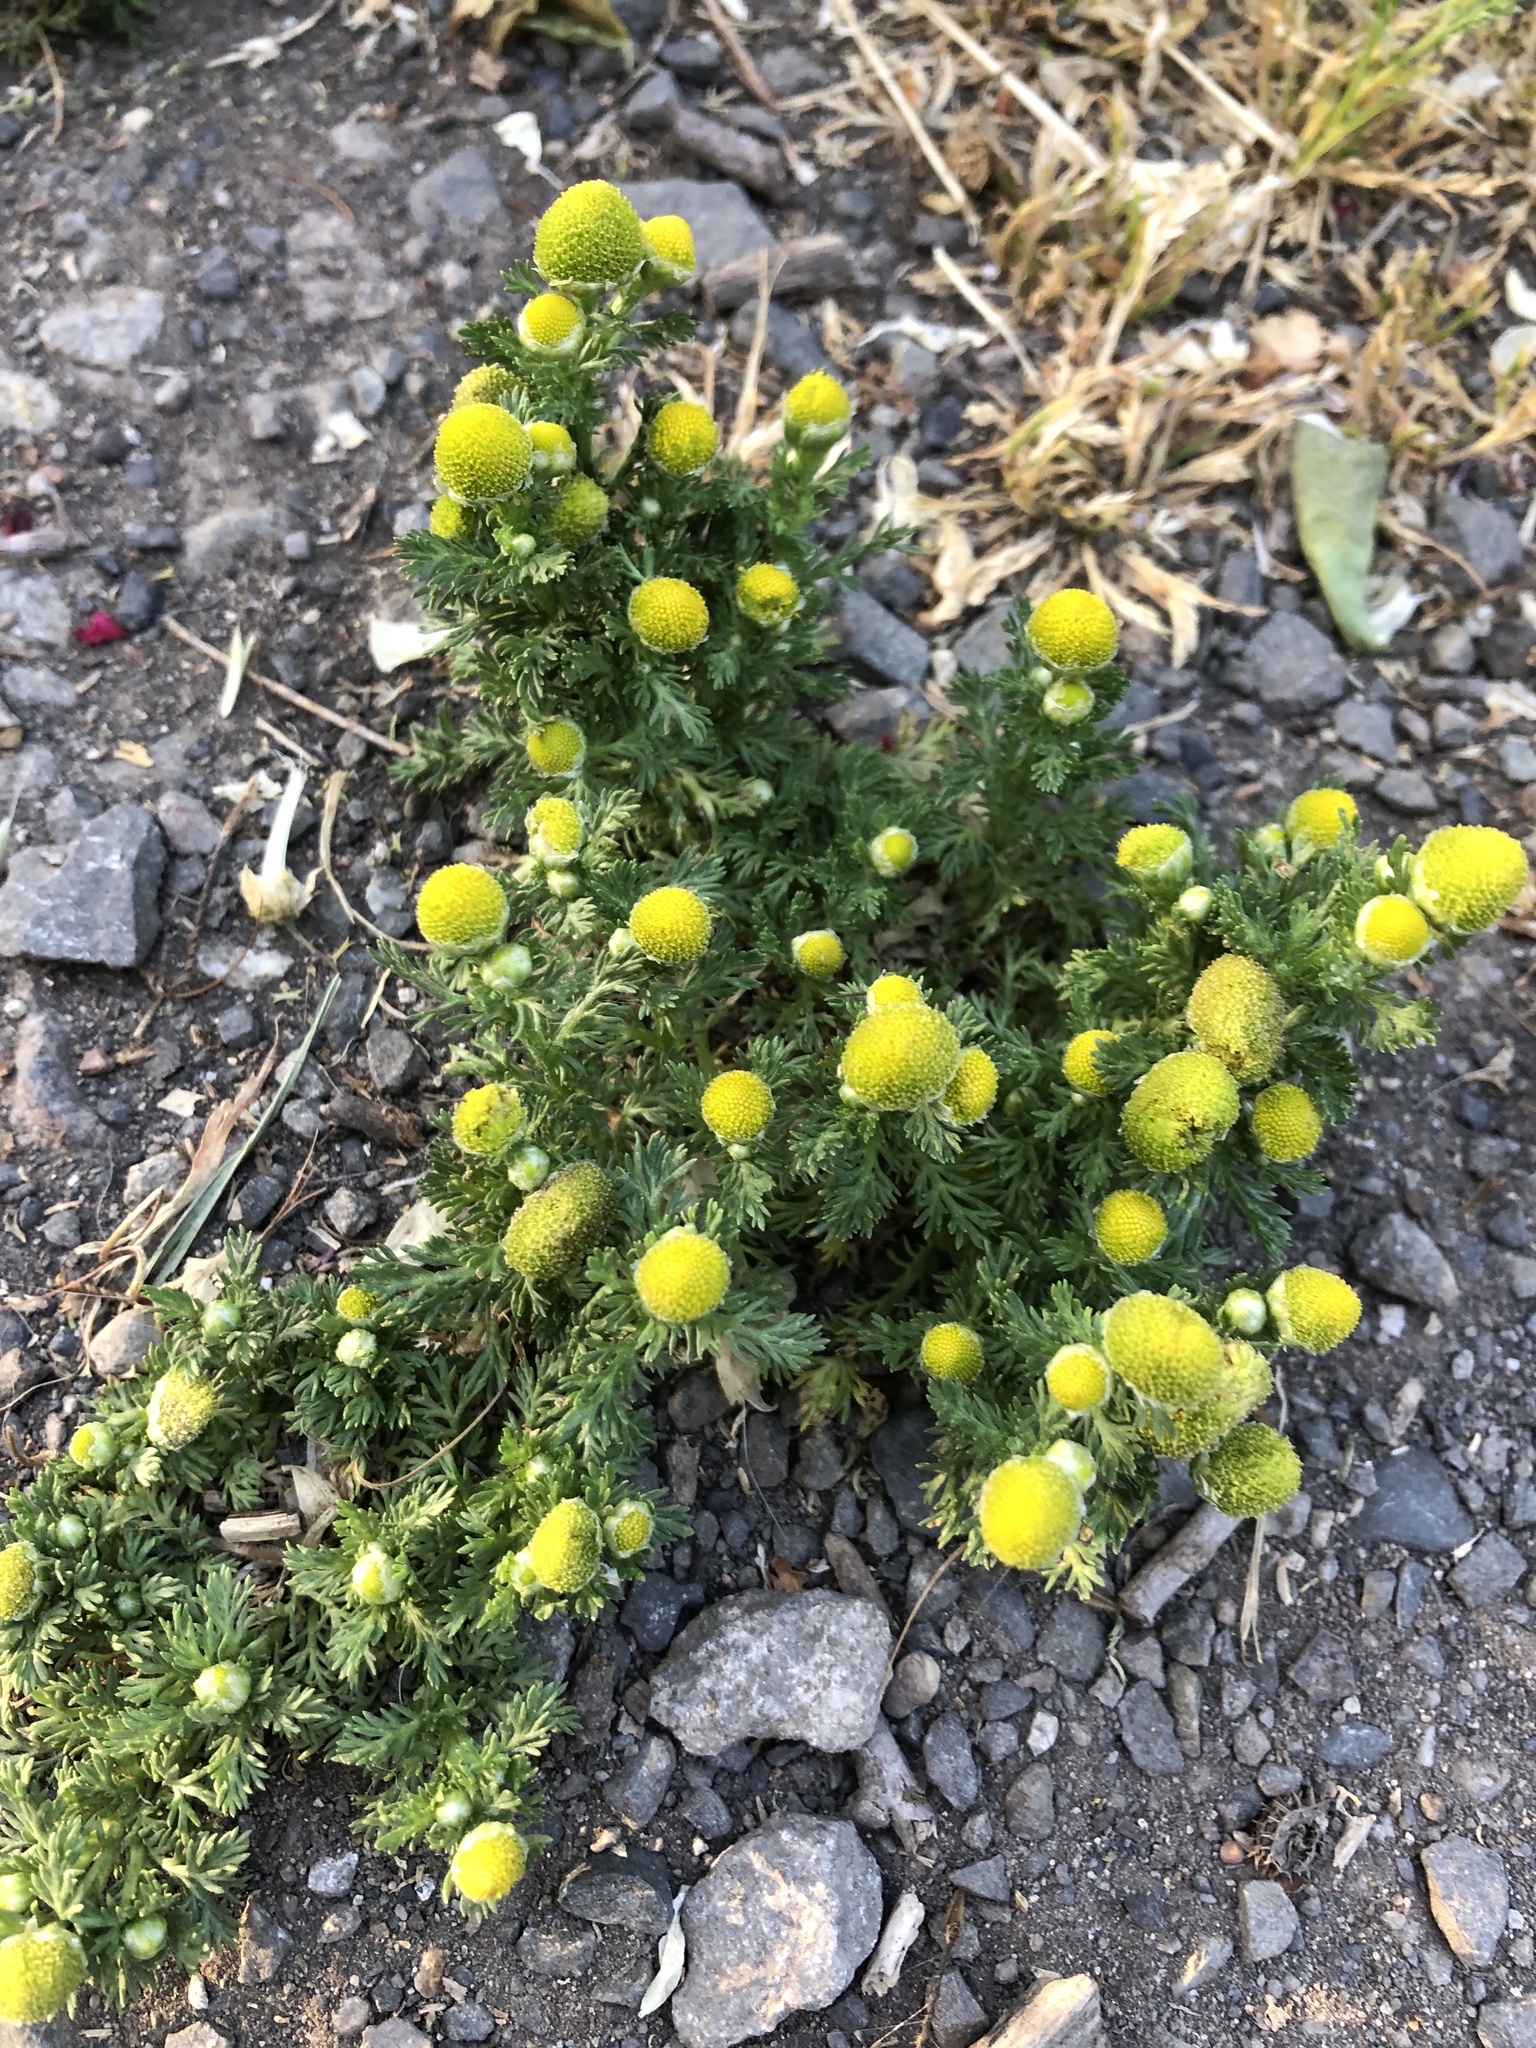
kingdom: Plantae
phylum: Tracheophyta
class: Magnoliopsida
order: Asterales
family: Asteraceae
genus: Matricaria
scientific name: Matricaria discoidea
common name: Disc mayweed
